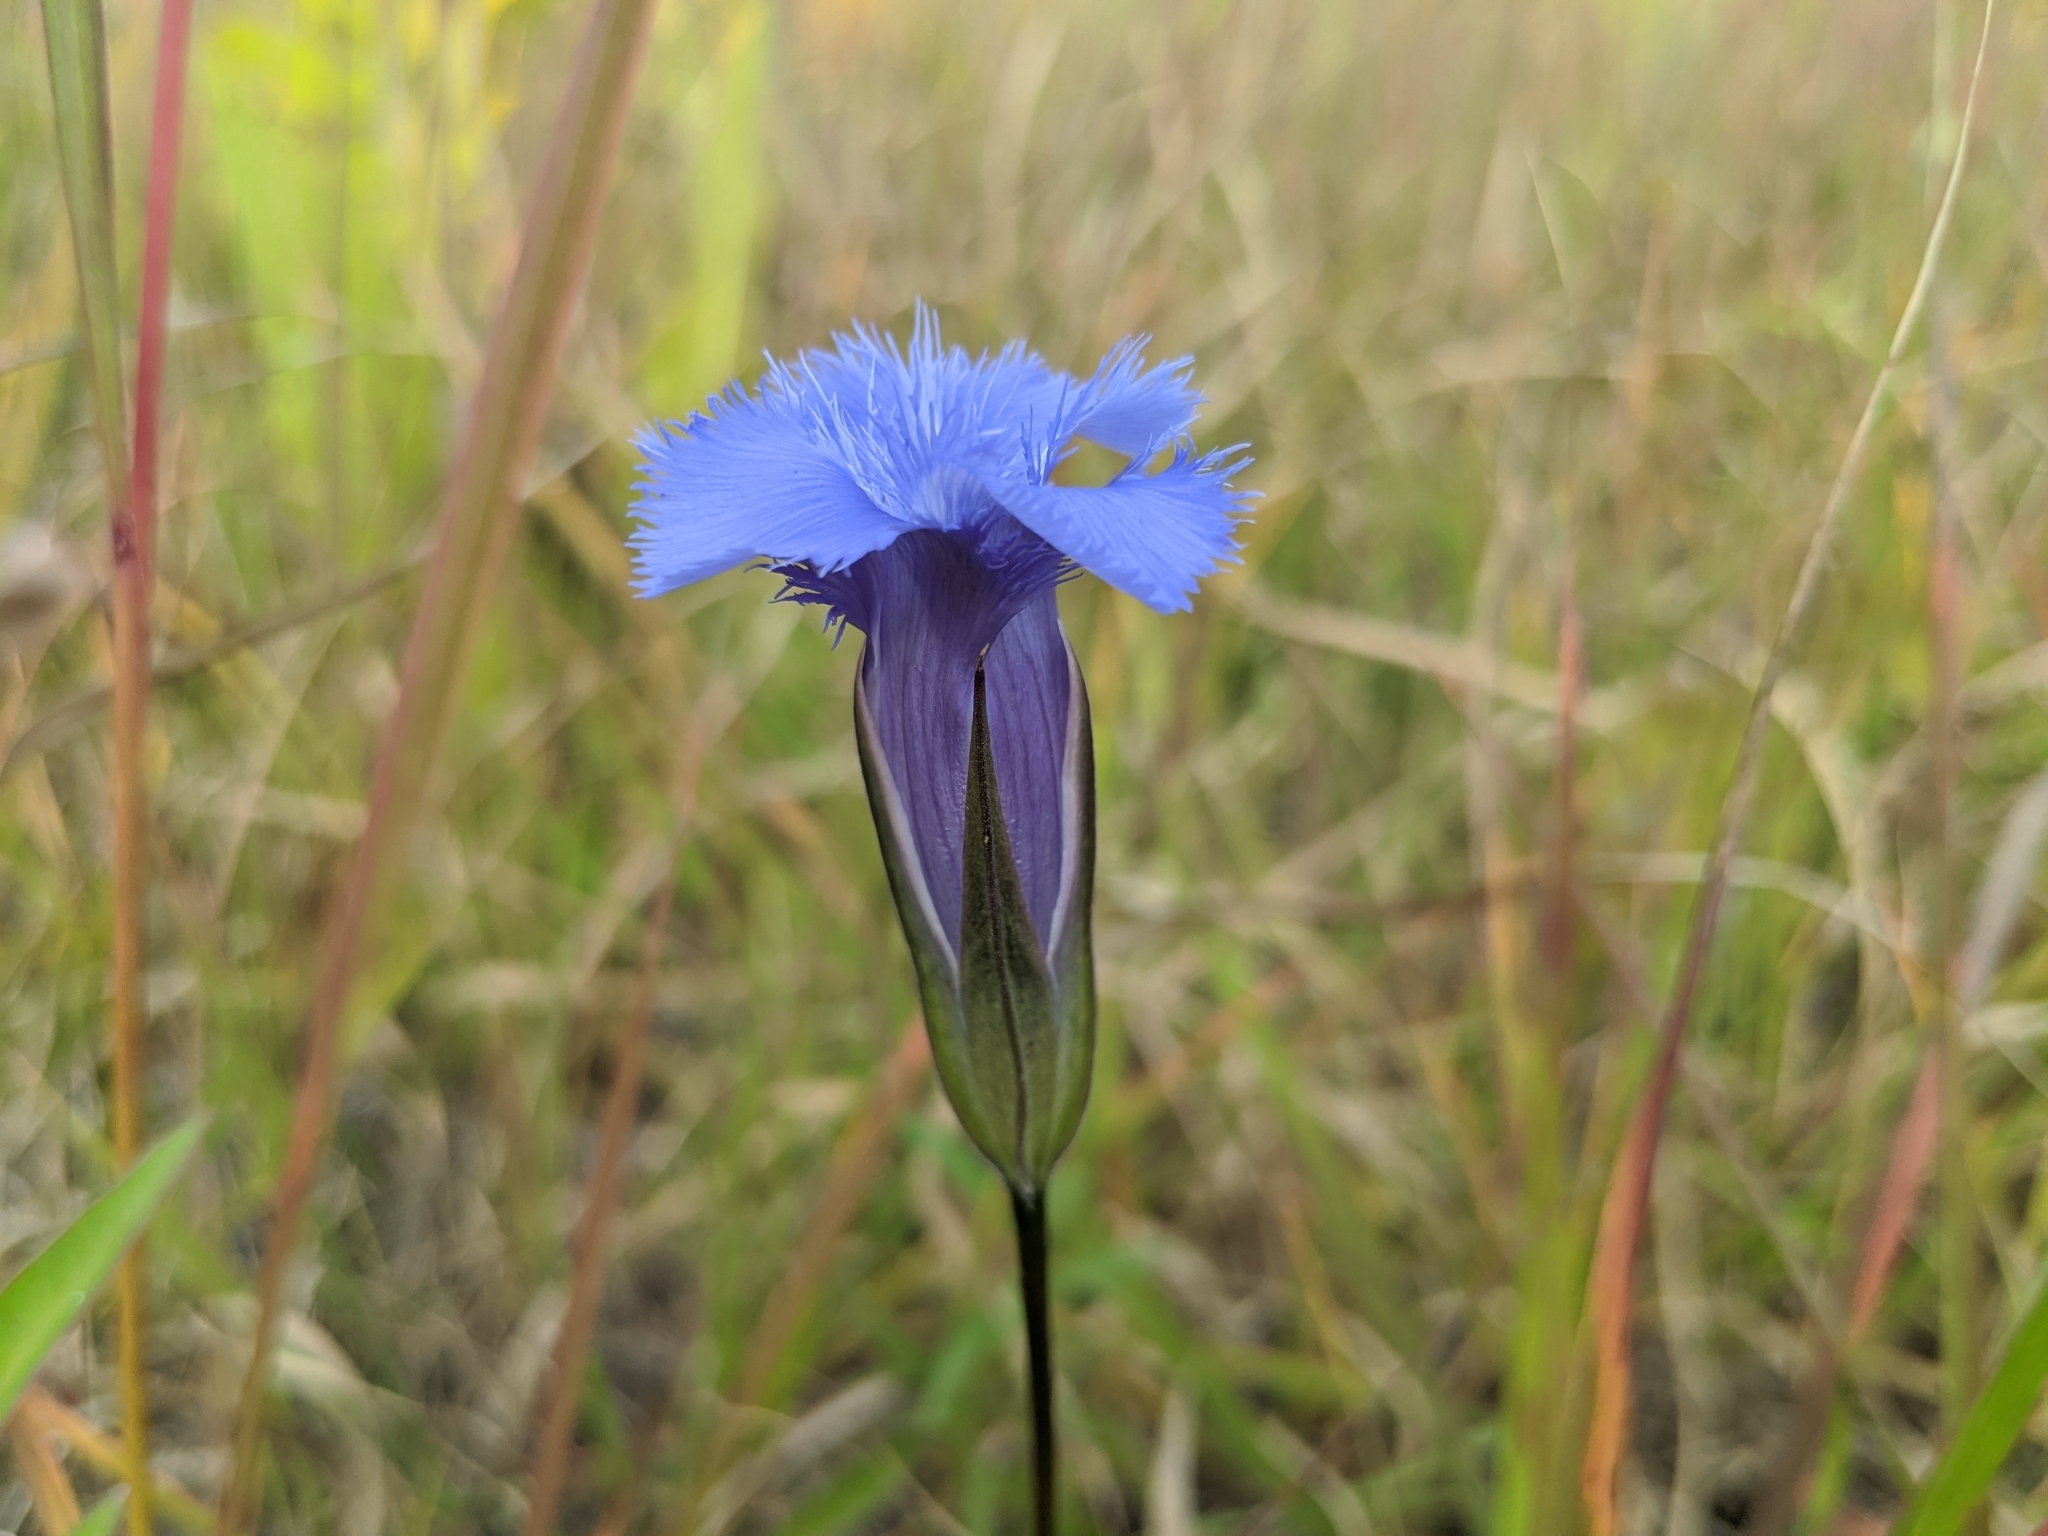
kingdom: Plantae
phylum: Tracheophyta
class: Magnoliopsida
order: Gentianales
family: Gentianaceae
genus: Gentianopsis
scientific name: Gentianopsis crinita
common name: Fringed-gentian
